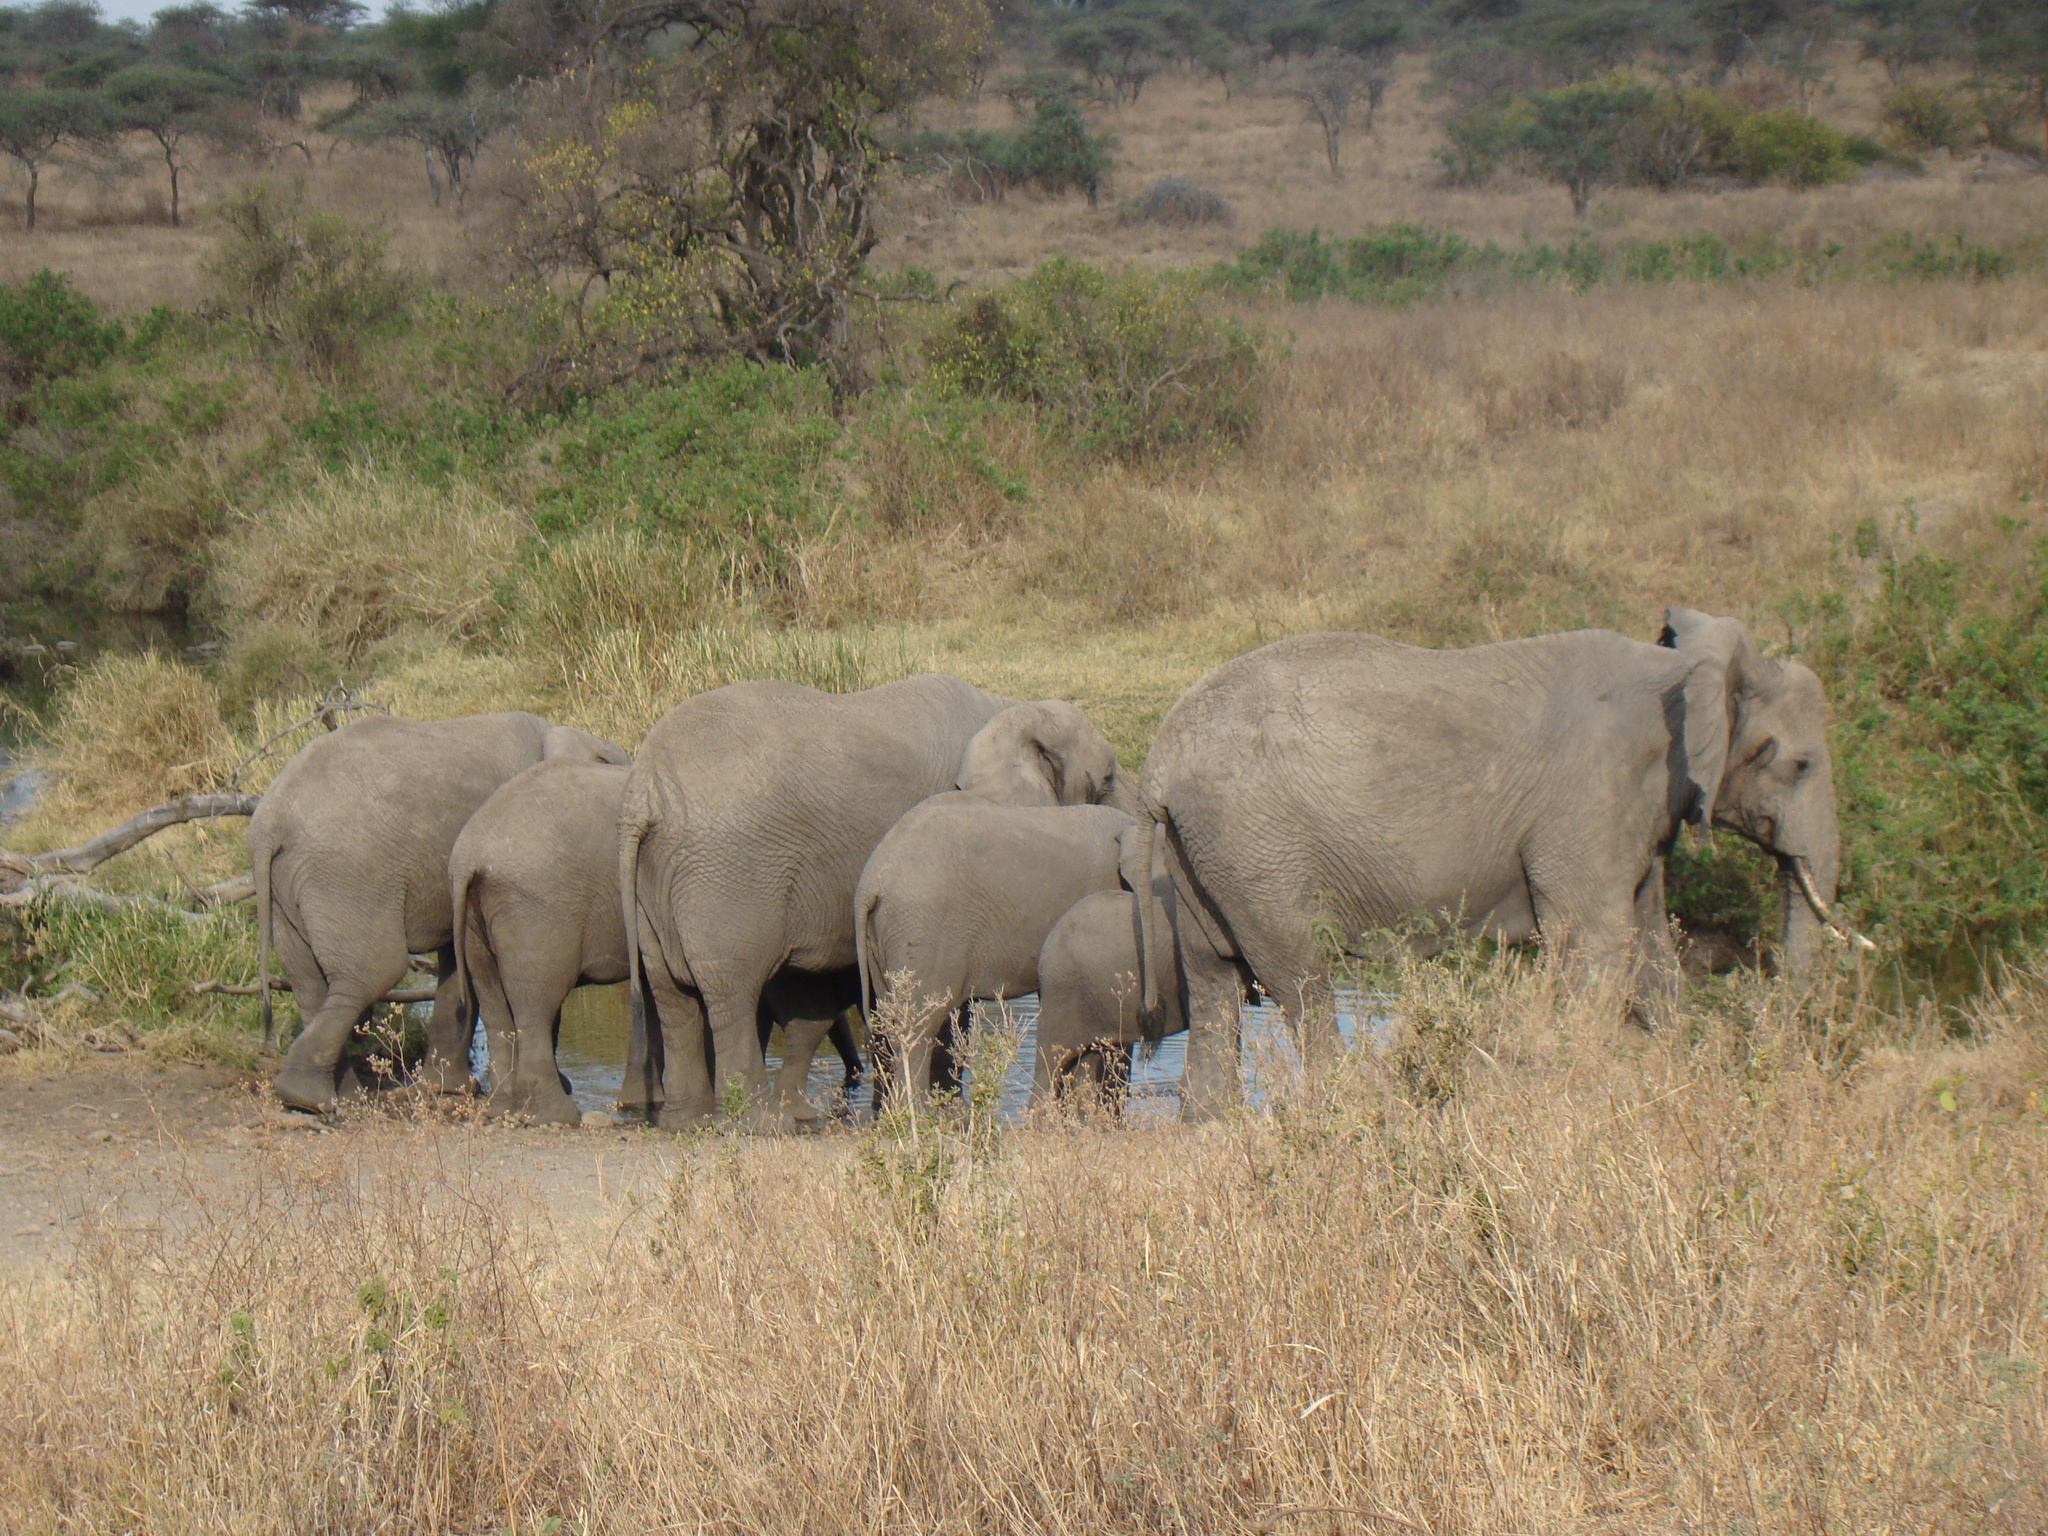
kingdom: Animalia
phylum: Chordata
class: Mammalia
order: Proboscidea
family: Elephantidae
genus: Loxodonta
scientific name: Loxodonta africana
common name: African elephant
